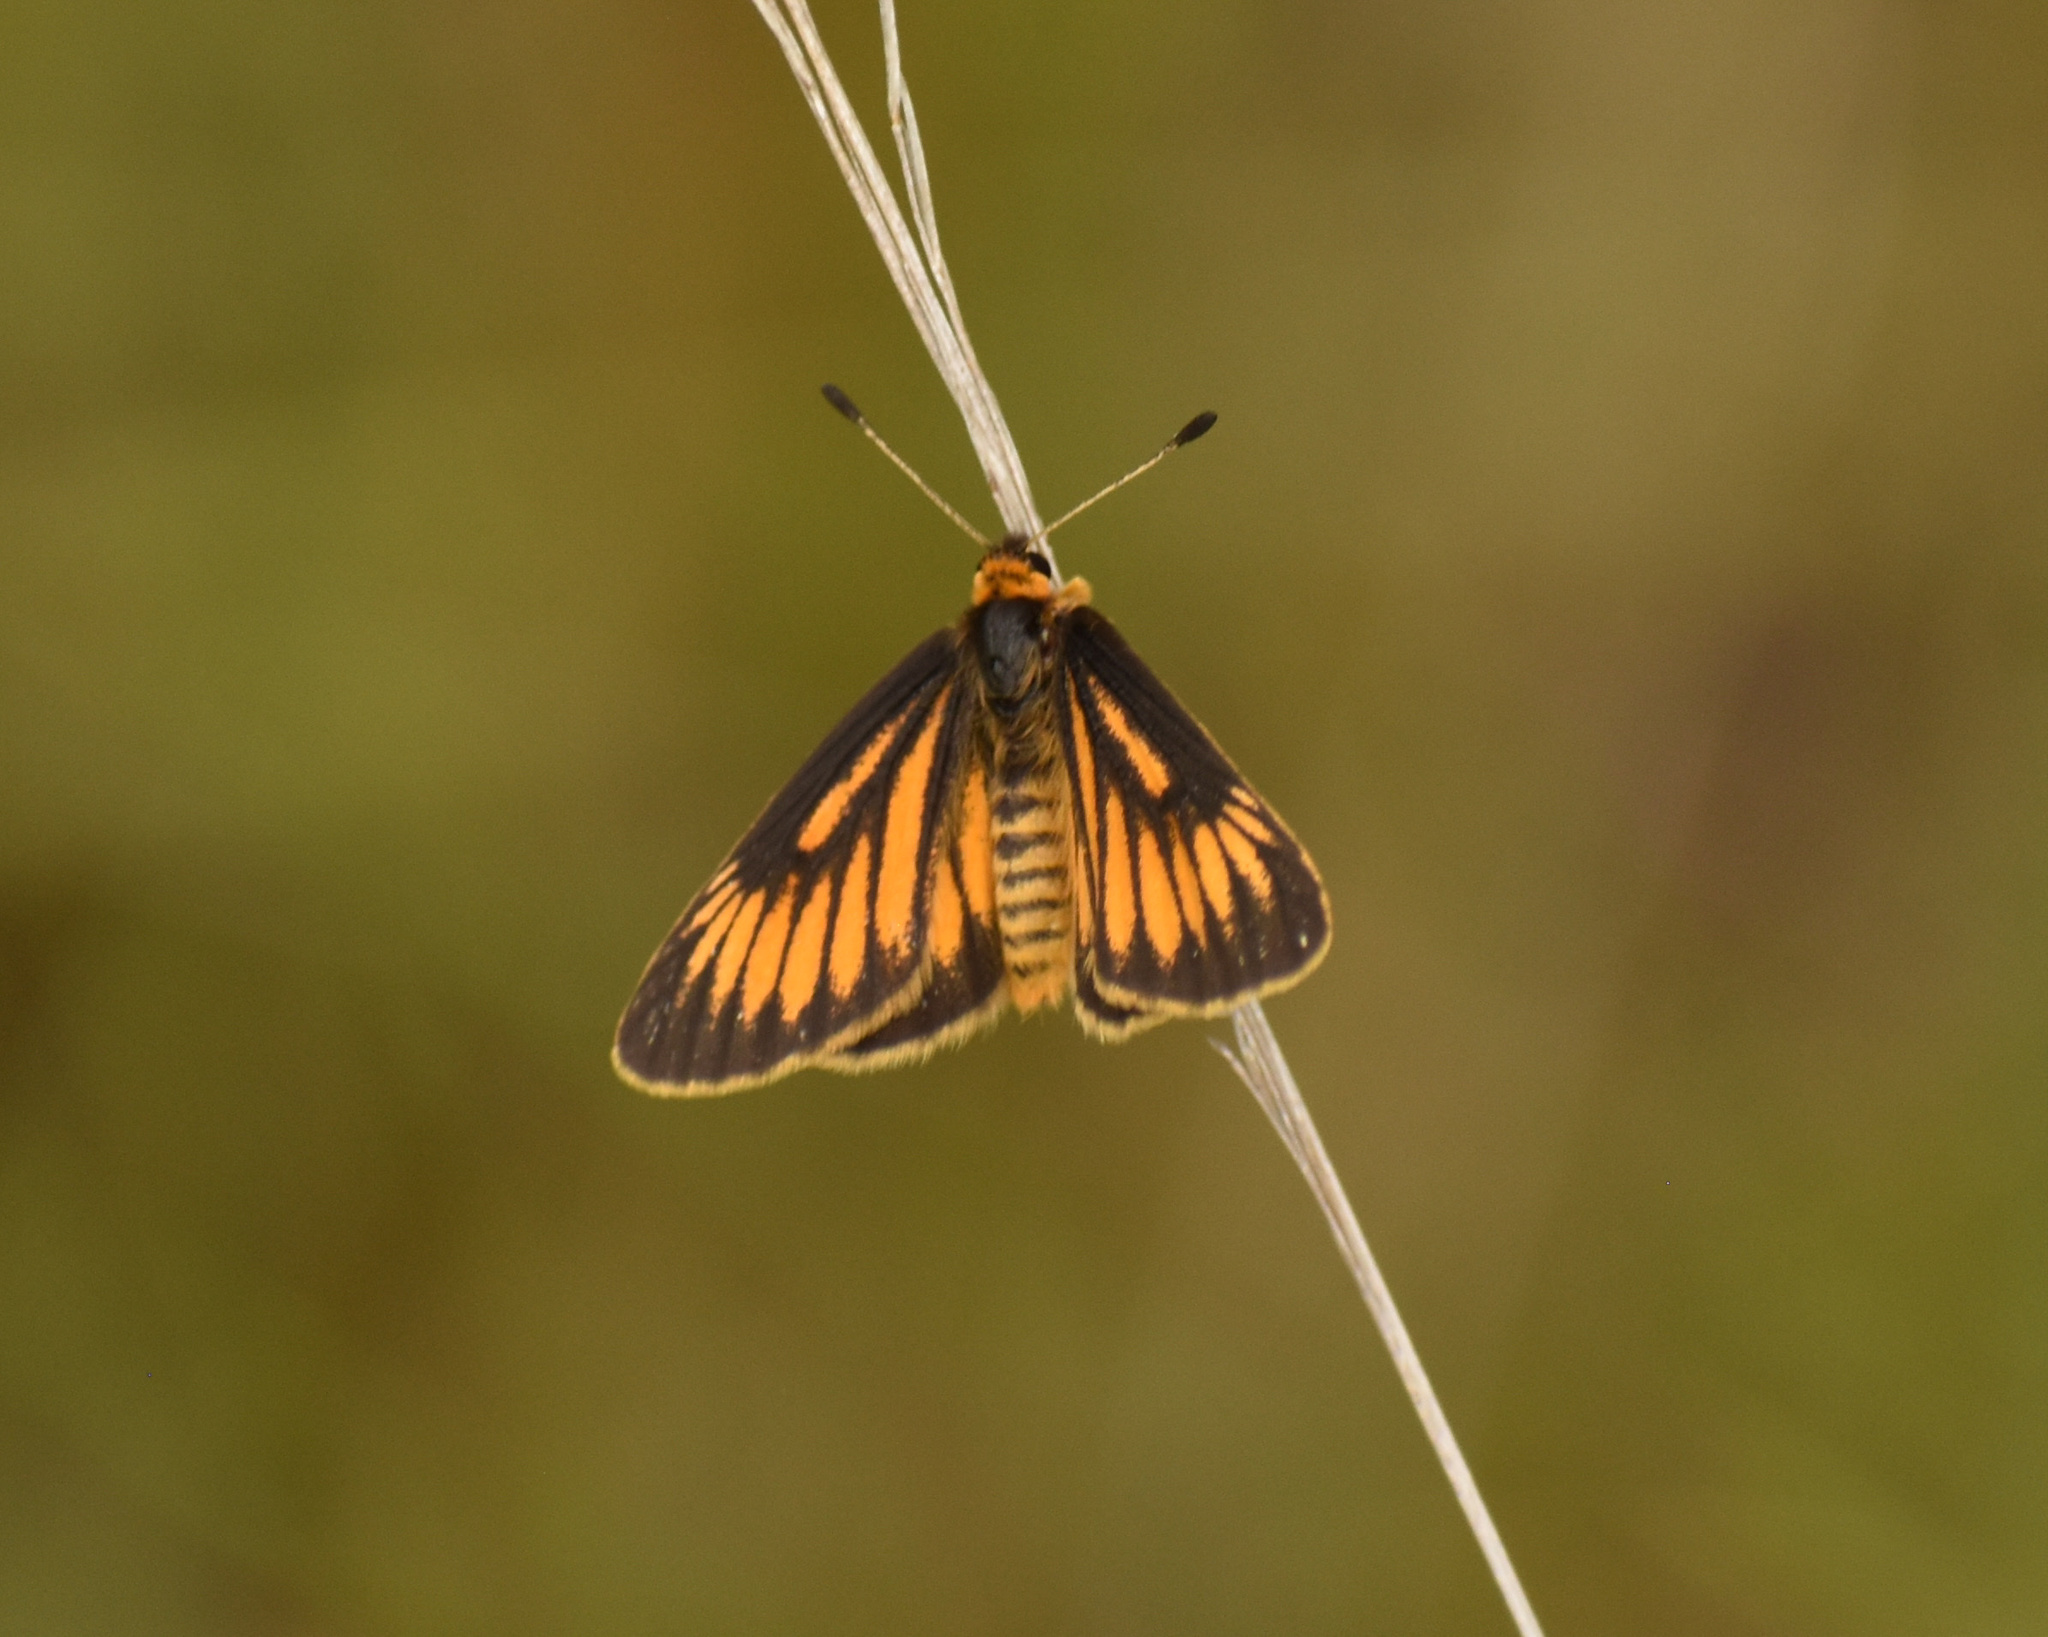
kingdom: Animalia
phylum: Arthropoda
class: Insecta
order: Lepidoptera
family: Lycaenidae
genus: Alaena
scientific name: Alaena amazoula
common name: Yellow zulu
